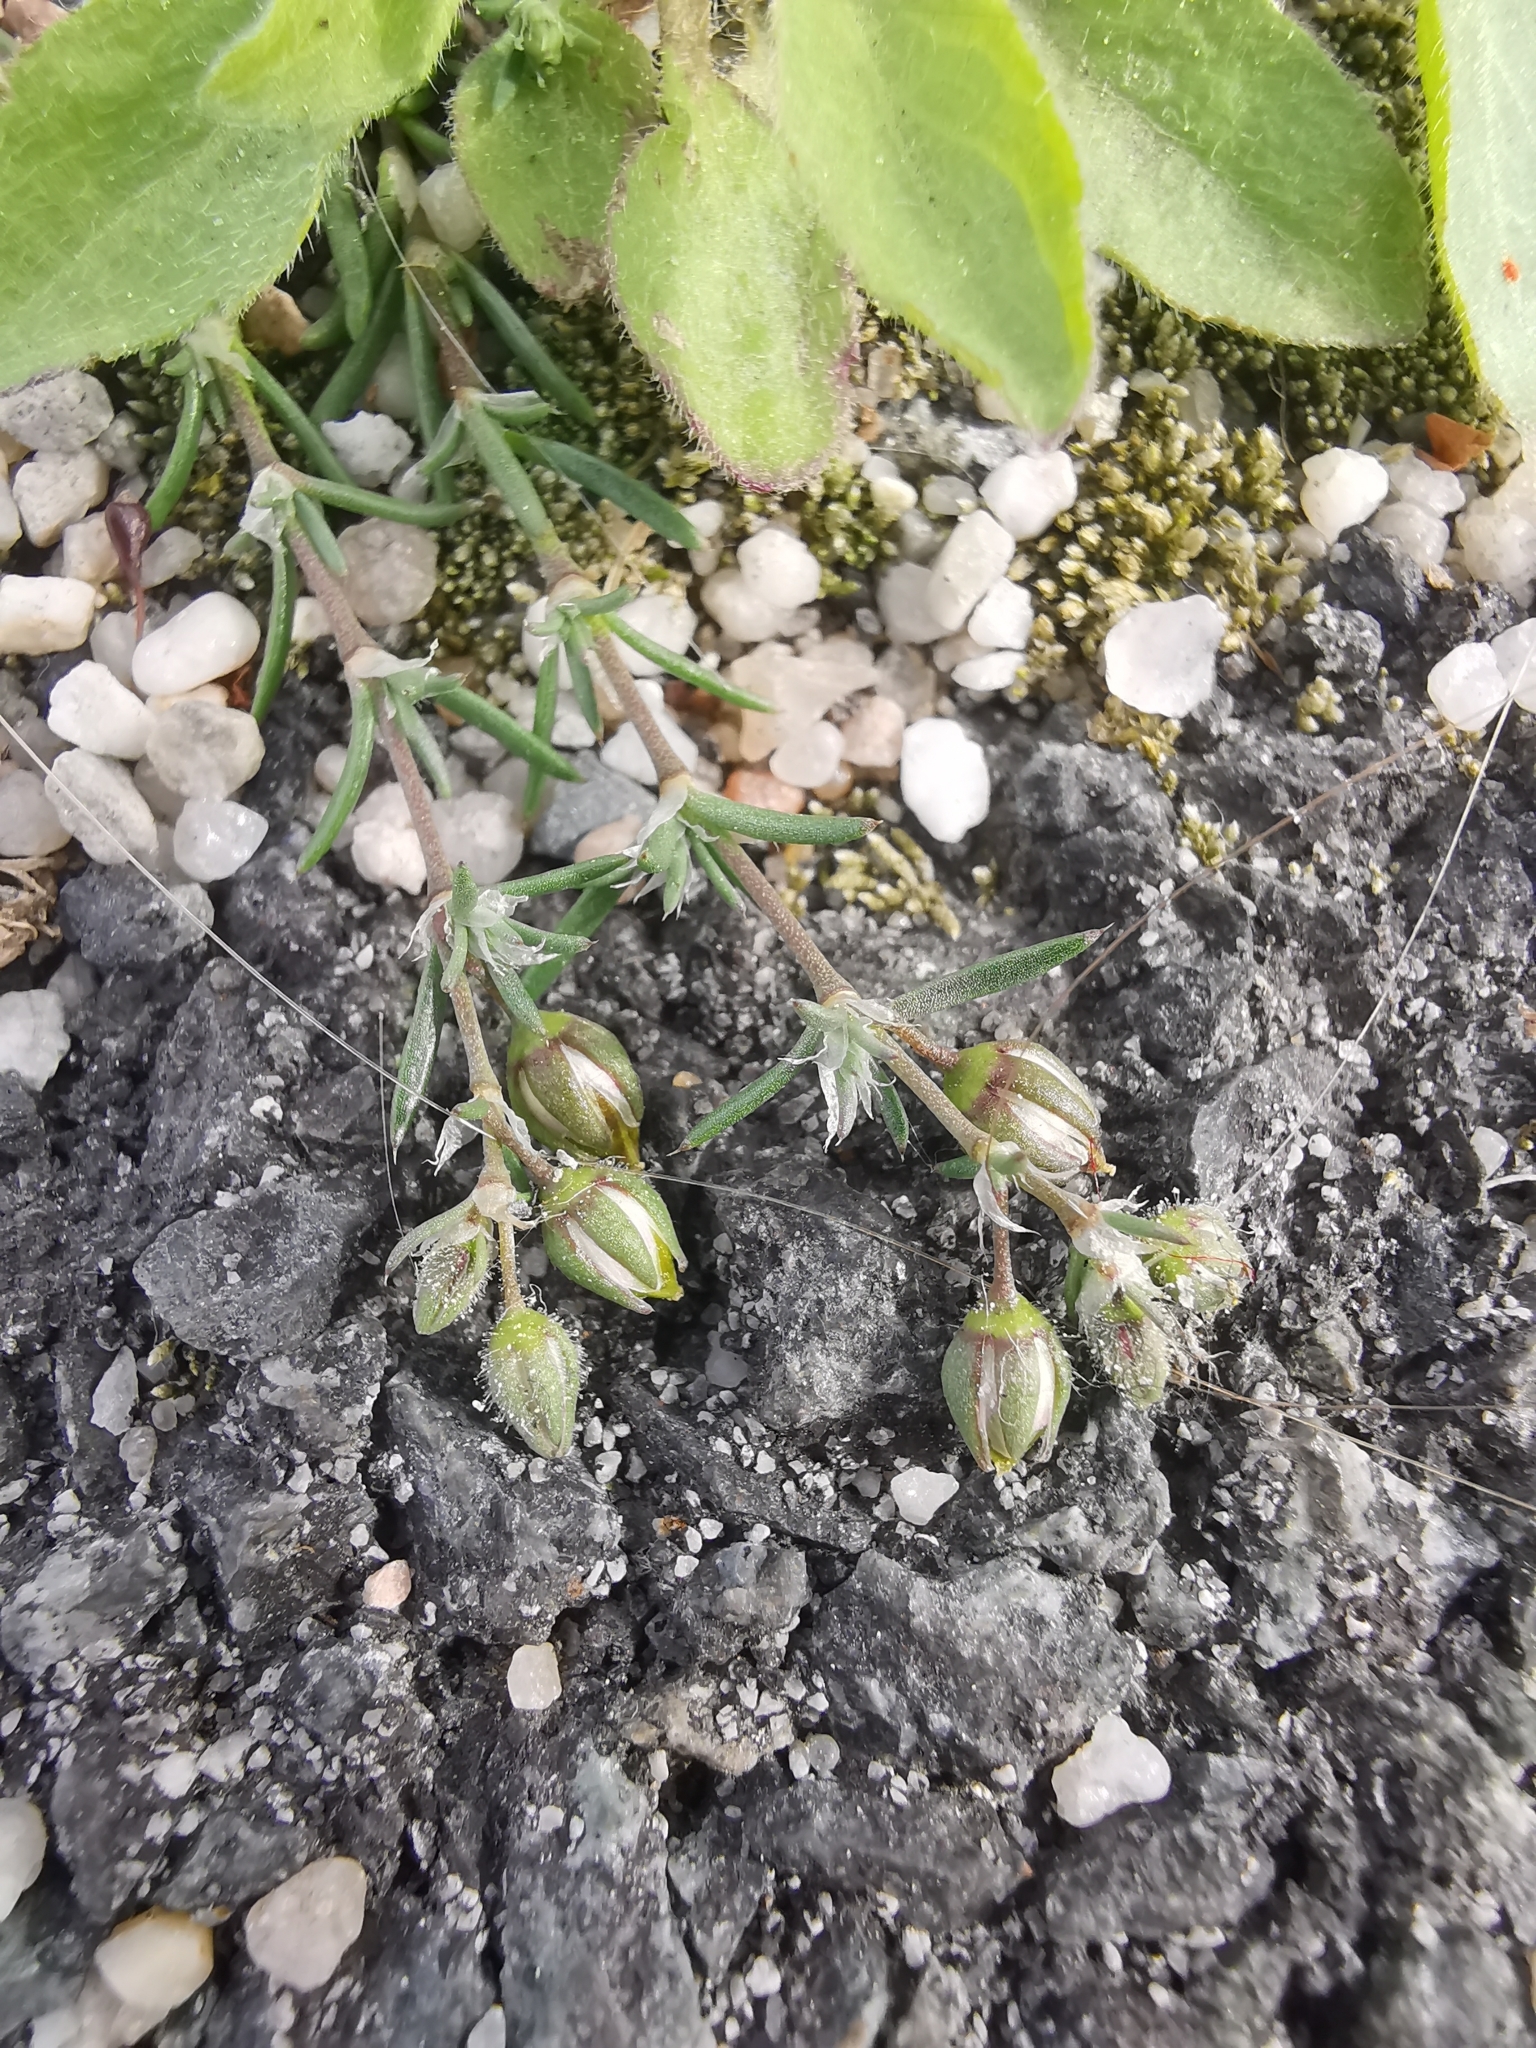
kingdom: Plantae
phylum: Tracheophyta
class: Magnoliopsida
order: Caryophyllales
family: Caryophyllaceae
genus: Spergularia
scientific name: Spergularia rubra
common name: Red sand-spurrey
